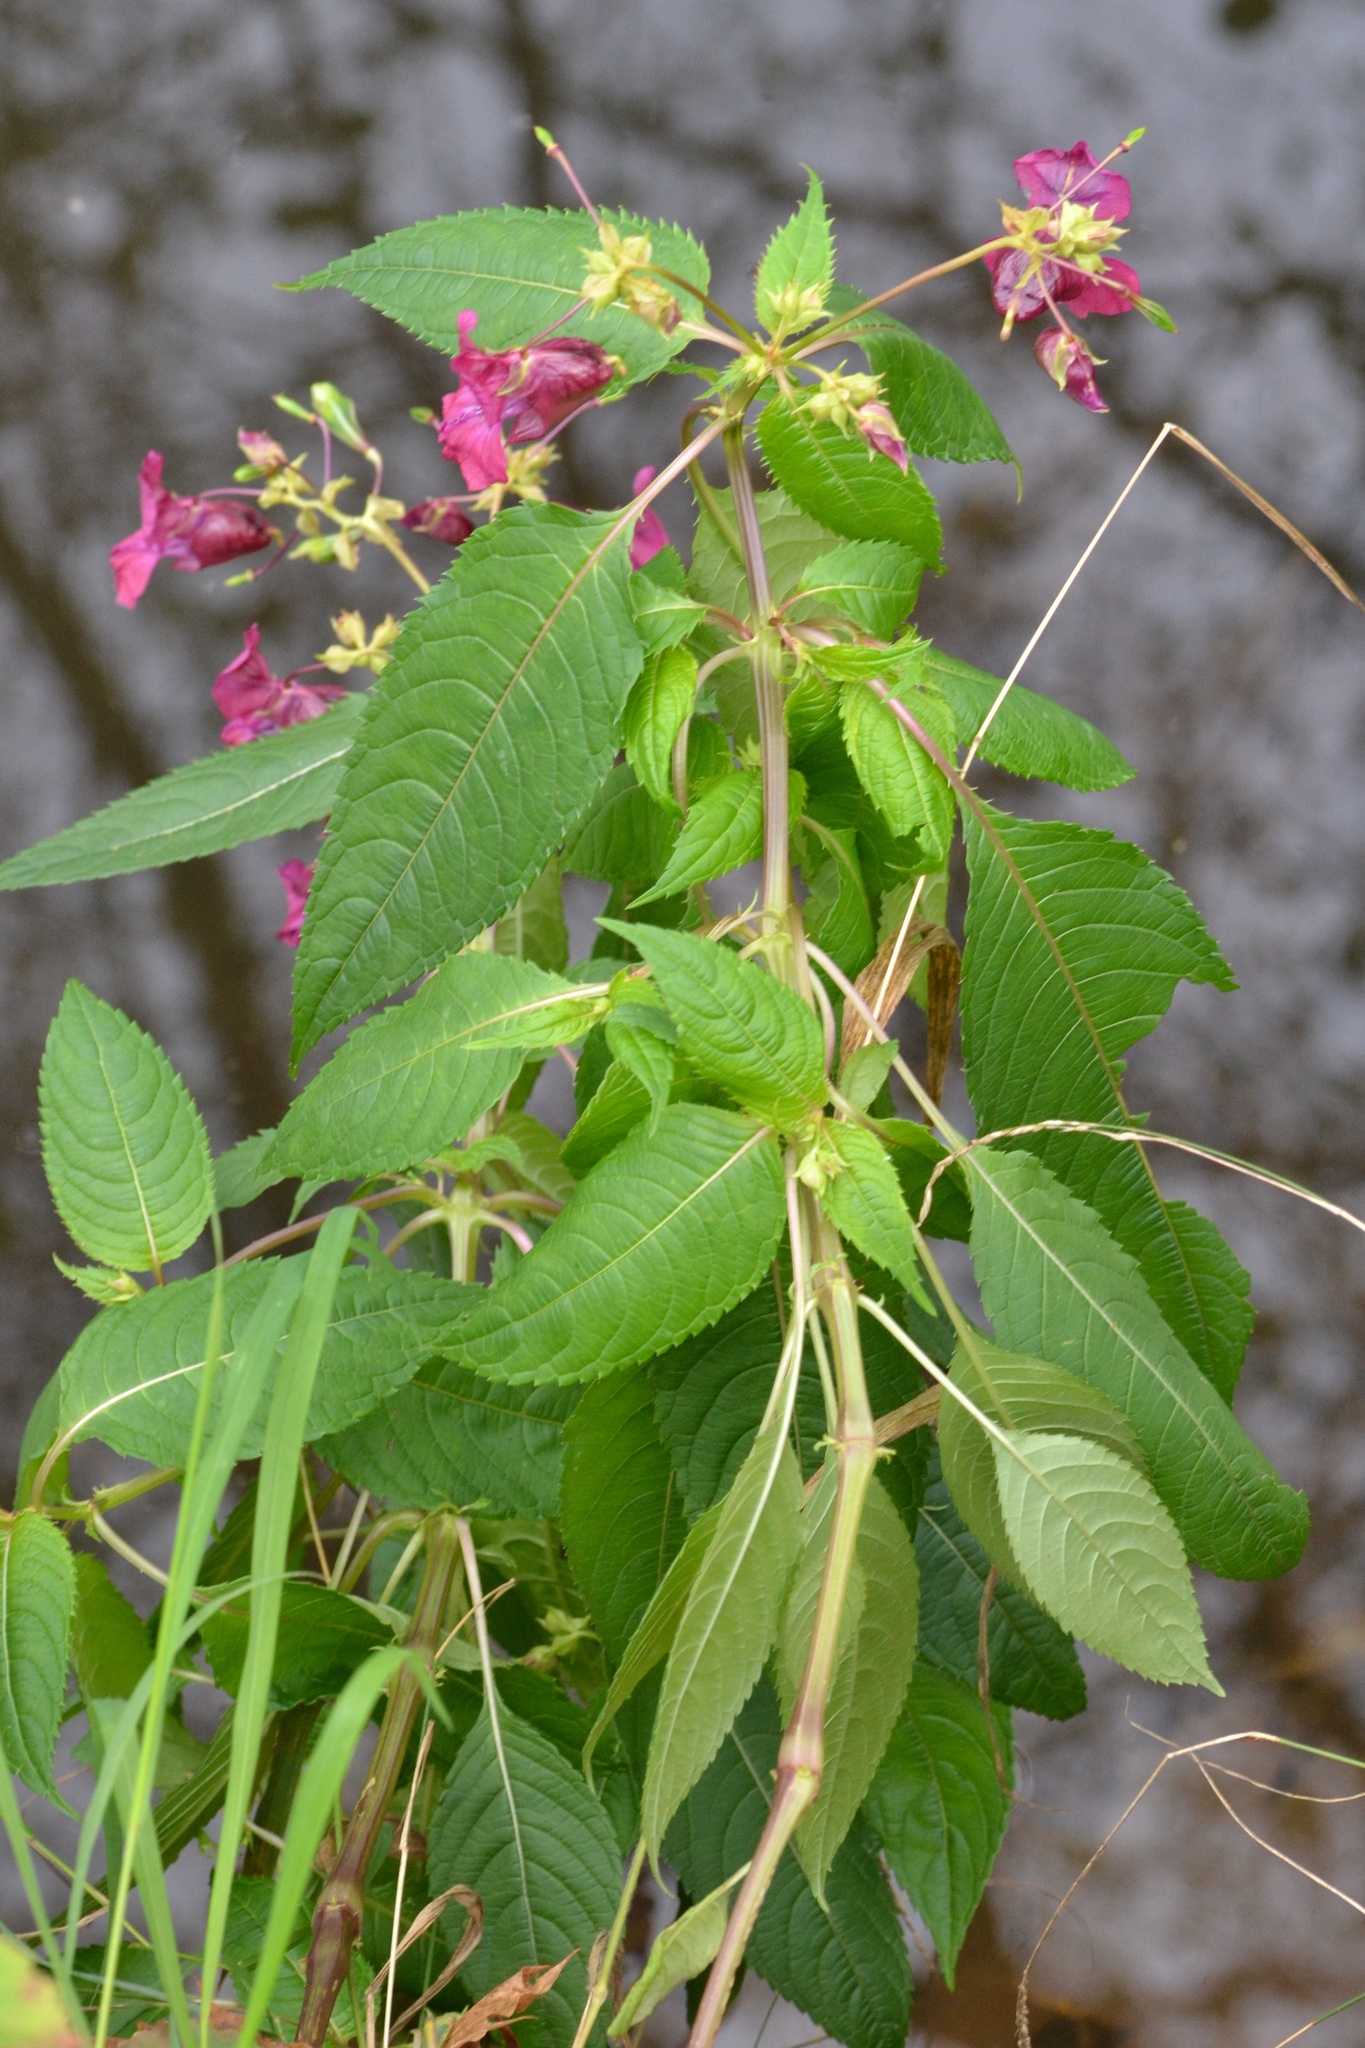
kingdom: Plantae
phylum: Tracheophyta
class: Magnoliopsida
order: Ericales
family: Balsaminaceae
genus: Impatiens
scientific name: Impatiens glandulifera
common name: Himalayan balsam
